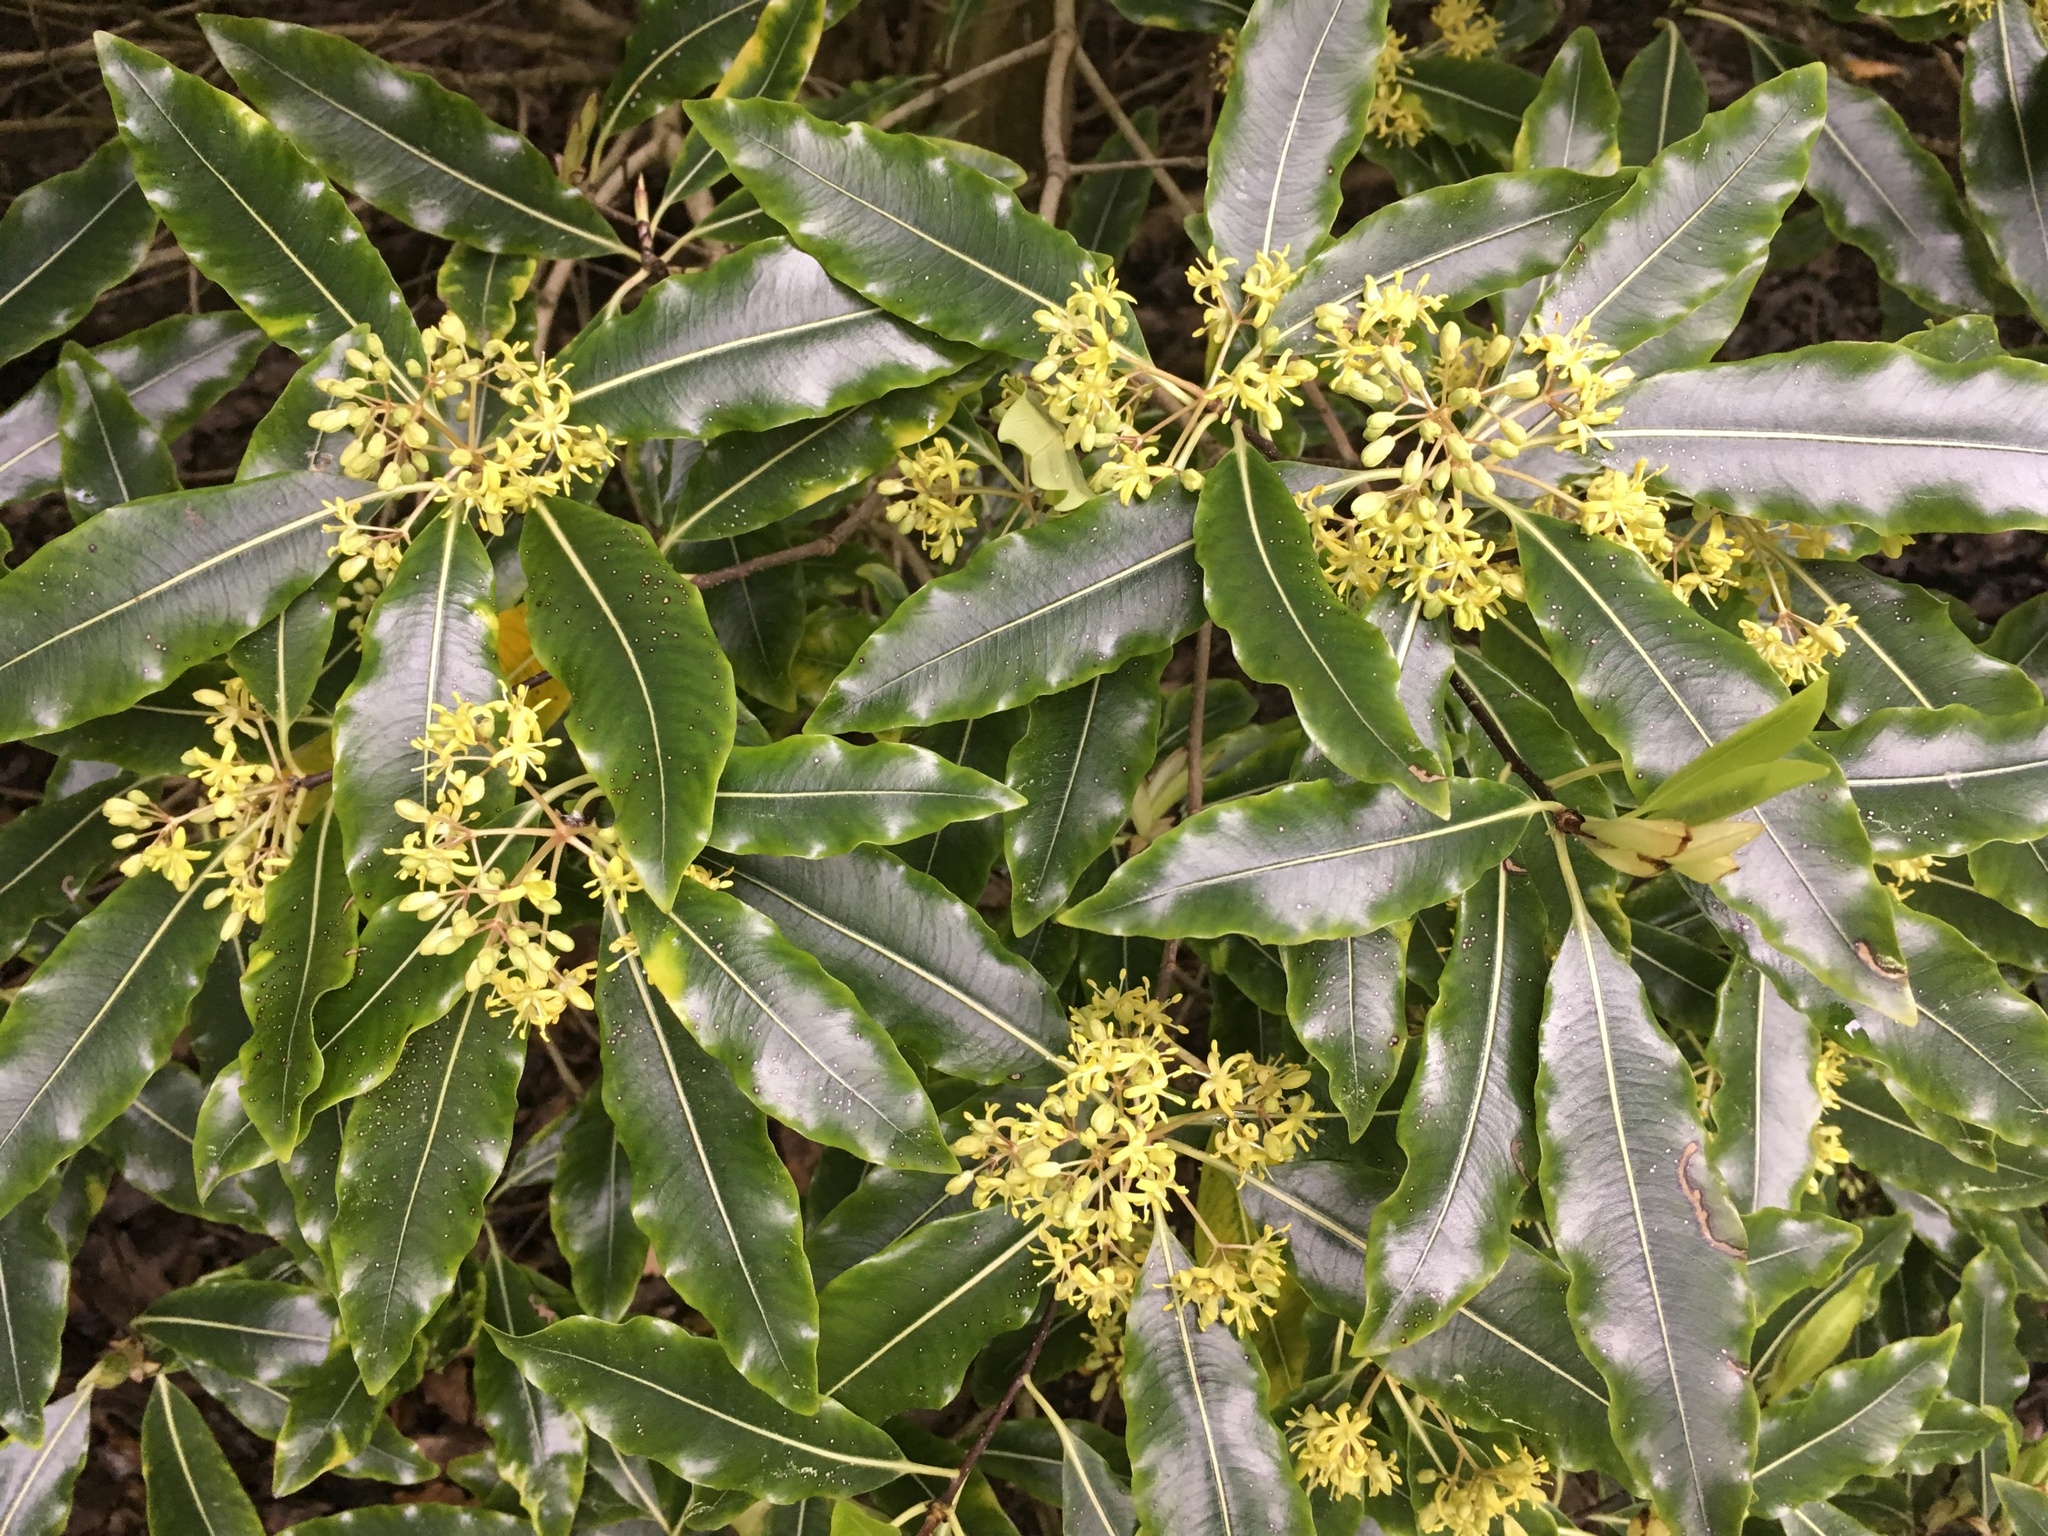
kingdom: Plantae
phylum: Tracheophyta
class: Magnoliopsida
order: Apiales
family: Pittosporaceae
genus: Pittosporum
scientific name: Pittosporum eugenioides
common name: Lemonwood
